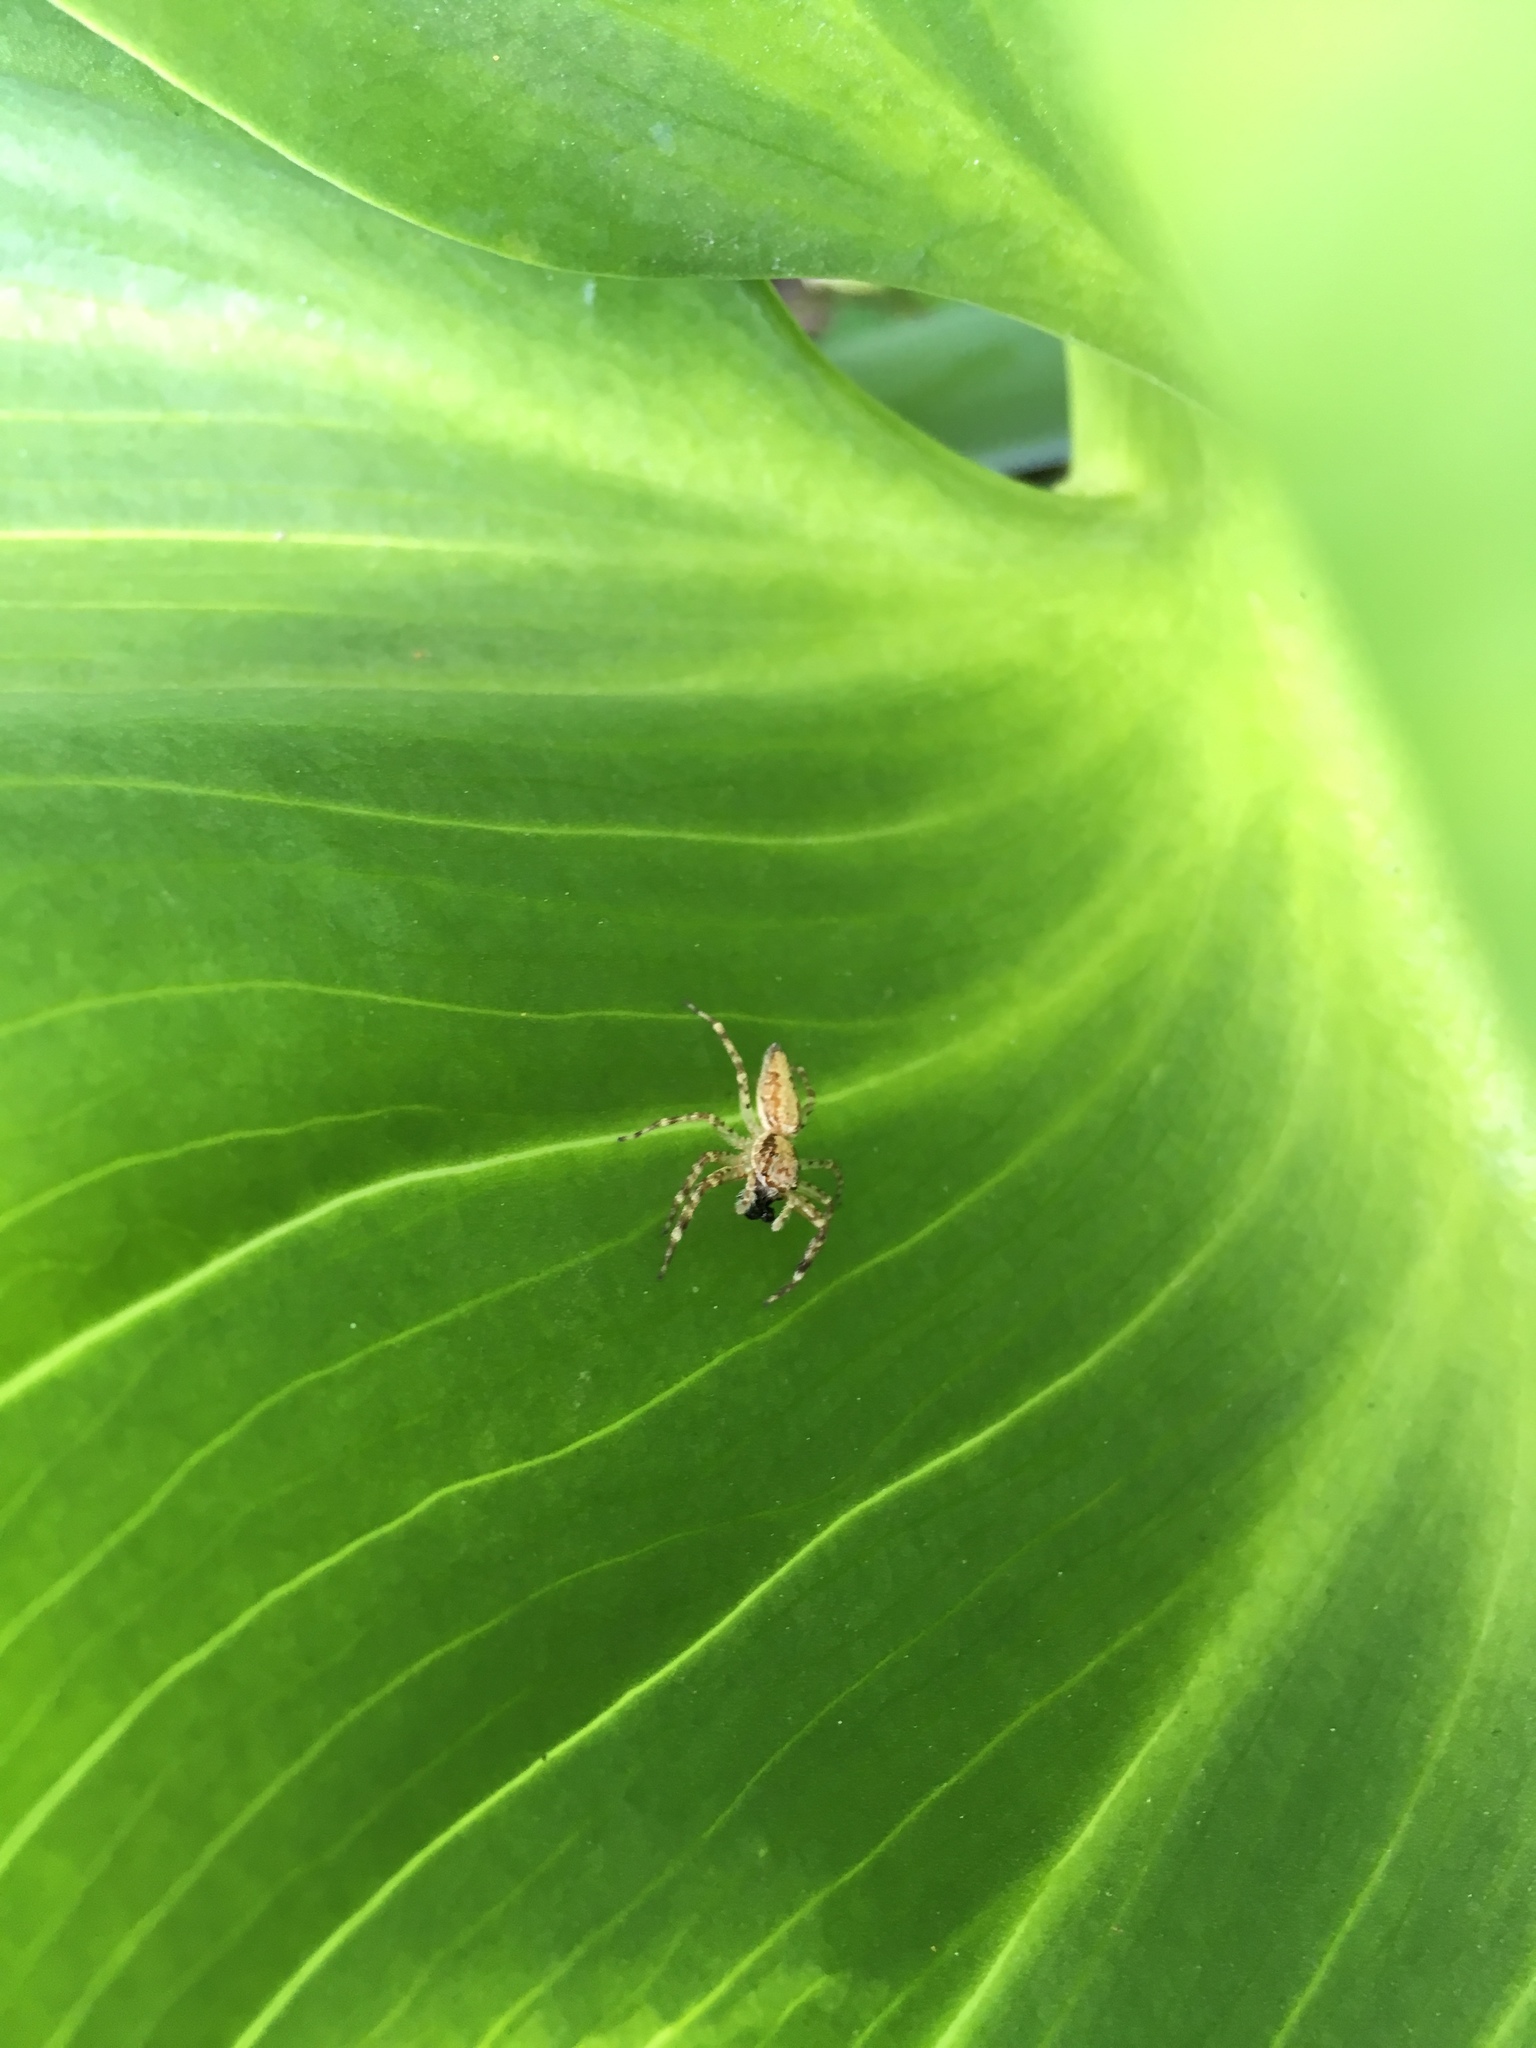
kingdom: Animalia
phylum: Arthropoda
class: Arachnida
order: Araneae
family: Salticidae
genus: Helpis
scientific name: Helpis minitabunda
